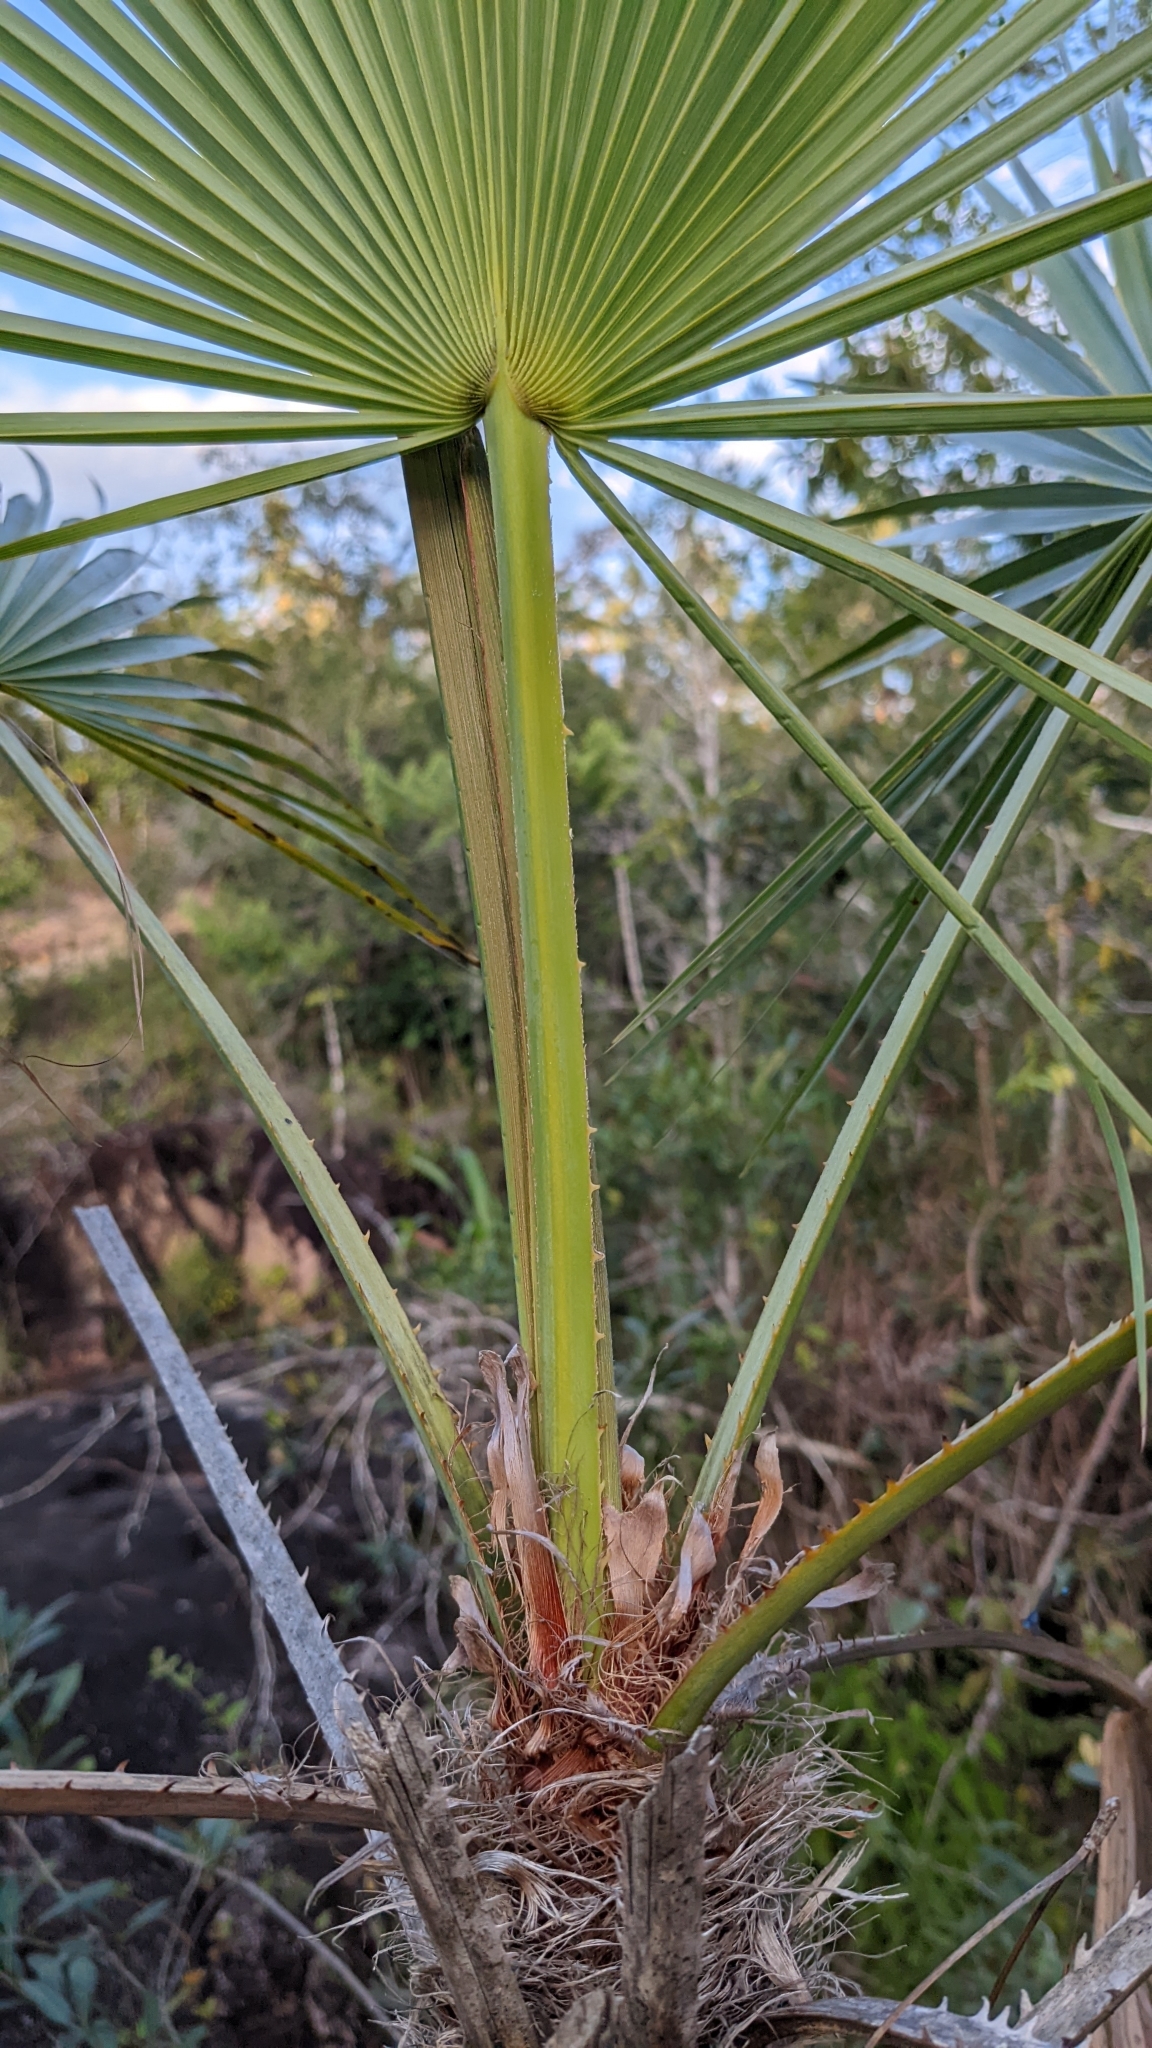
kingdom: Plantae
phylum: Tracheophyta
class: Liliopsida
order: Arecales
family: Arecaceae
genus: Acoelorraphe
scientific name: Acoelorraphe wrightii
